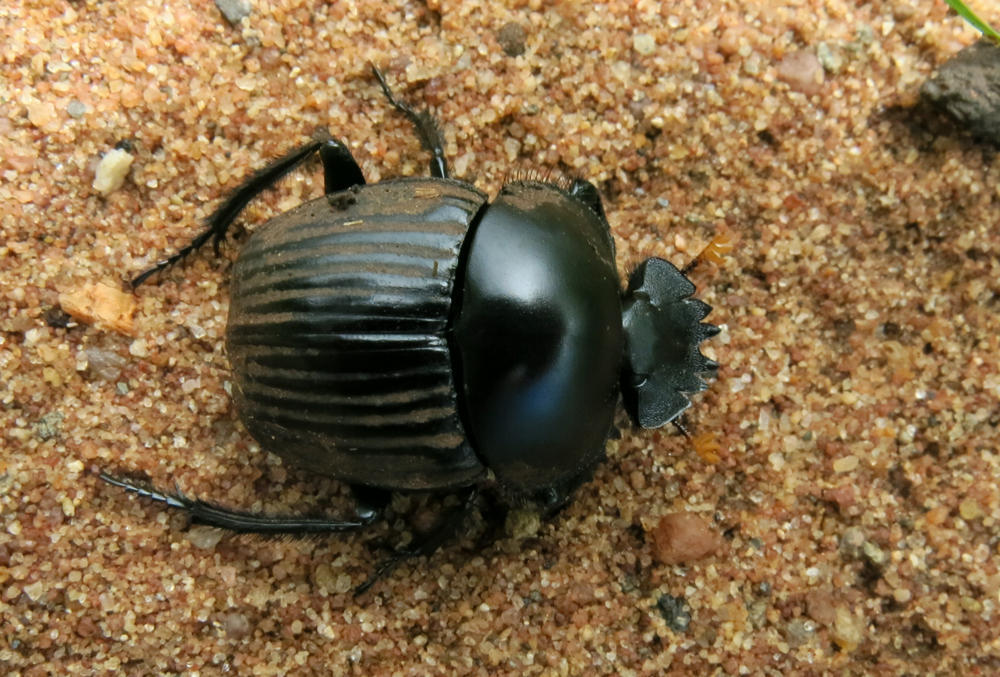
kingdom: Animalia
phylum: Arthropoda
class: Insecta
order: Coleoptera
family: Scarabaeidae
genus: Scarabaeus
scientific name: Scarabaeus schulzeae
